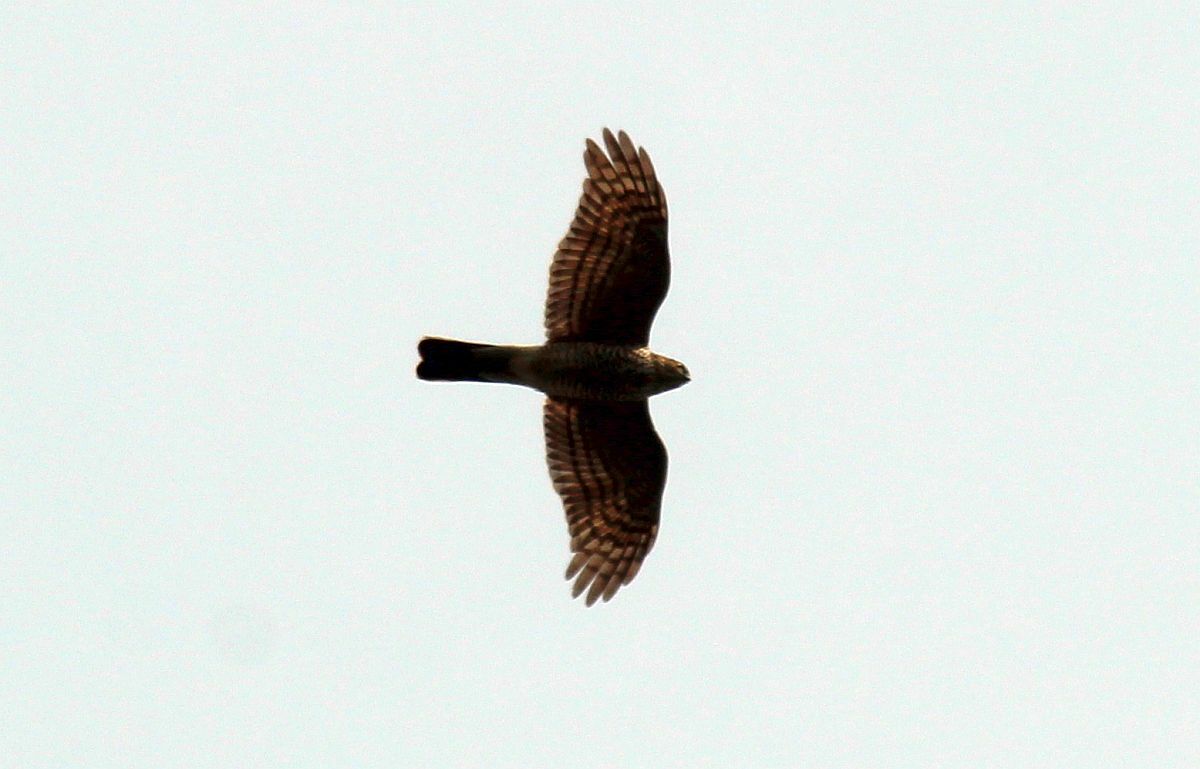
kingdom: Animalia
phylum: Chordata
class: Aves
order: Accipitriformes
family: Accipitridae
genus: Accipiter
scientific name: Accipiter nisus
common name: Eurasian sparrowhawk
